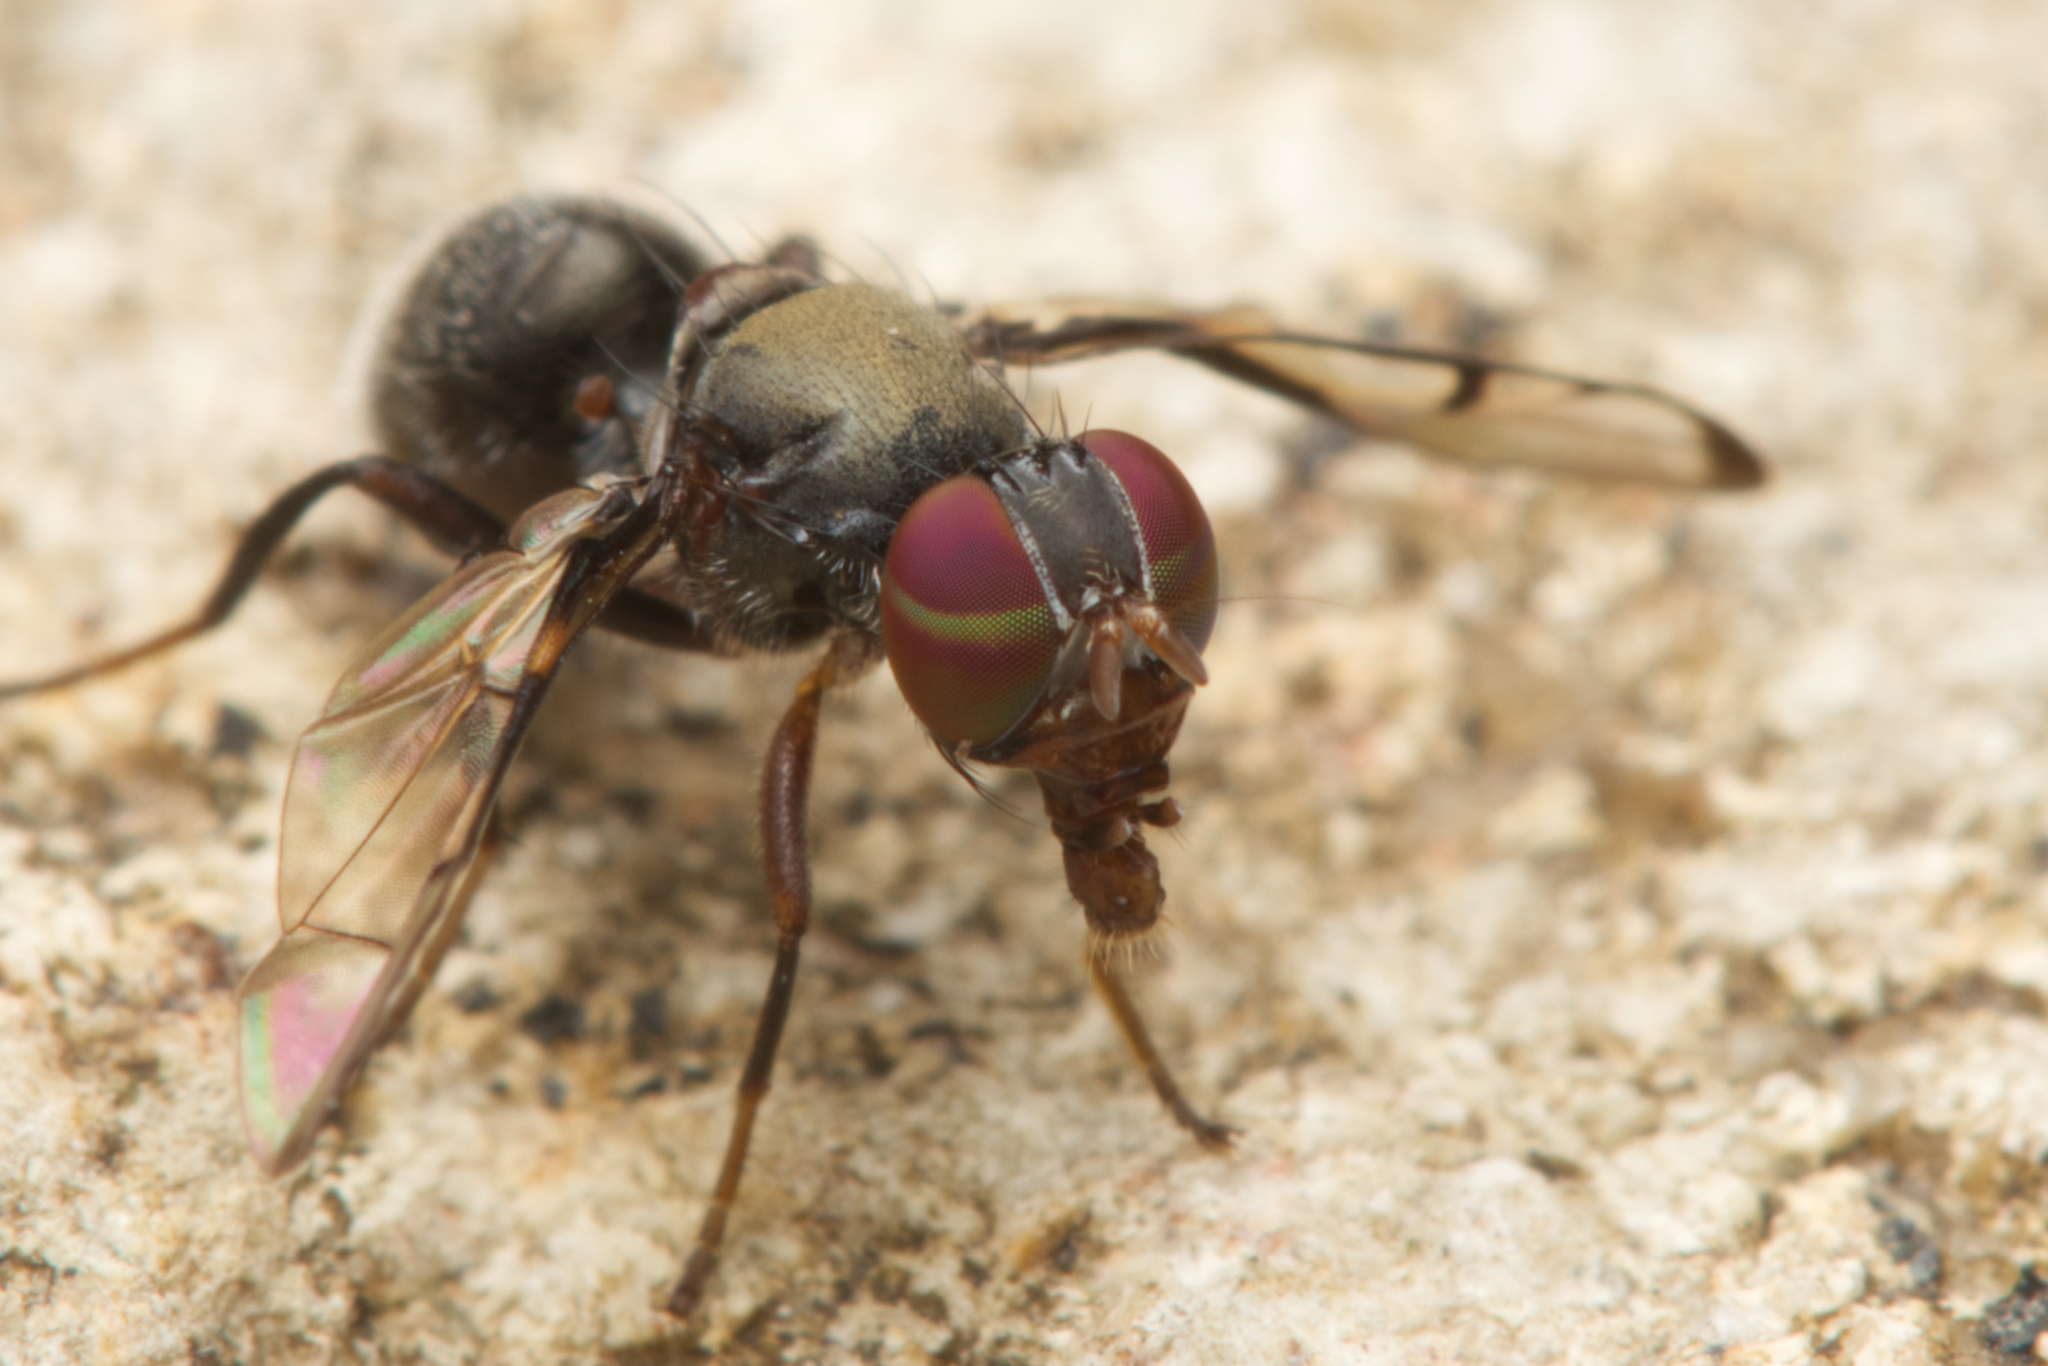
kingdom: Animalia
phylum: Arthropoda
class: Insecta
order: Diptera
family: Platystomatidae
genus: Pogonortalis
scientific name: Pogonortalis doclea
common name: Boatman fly
